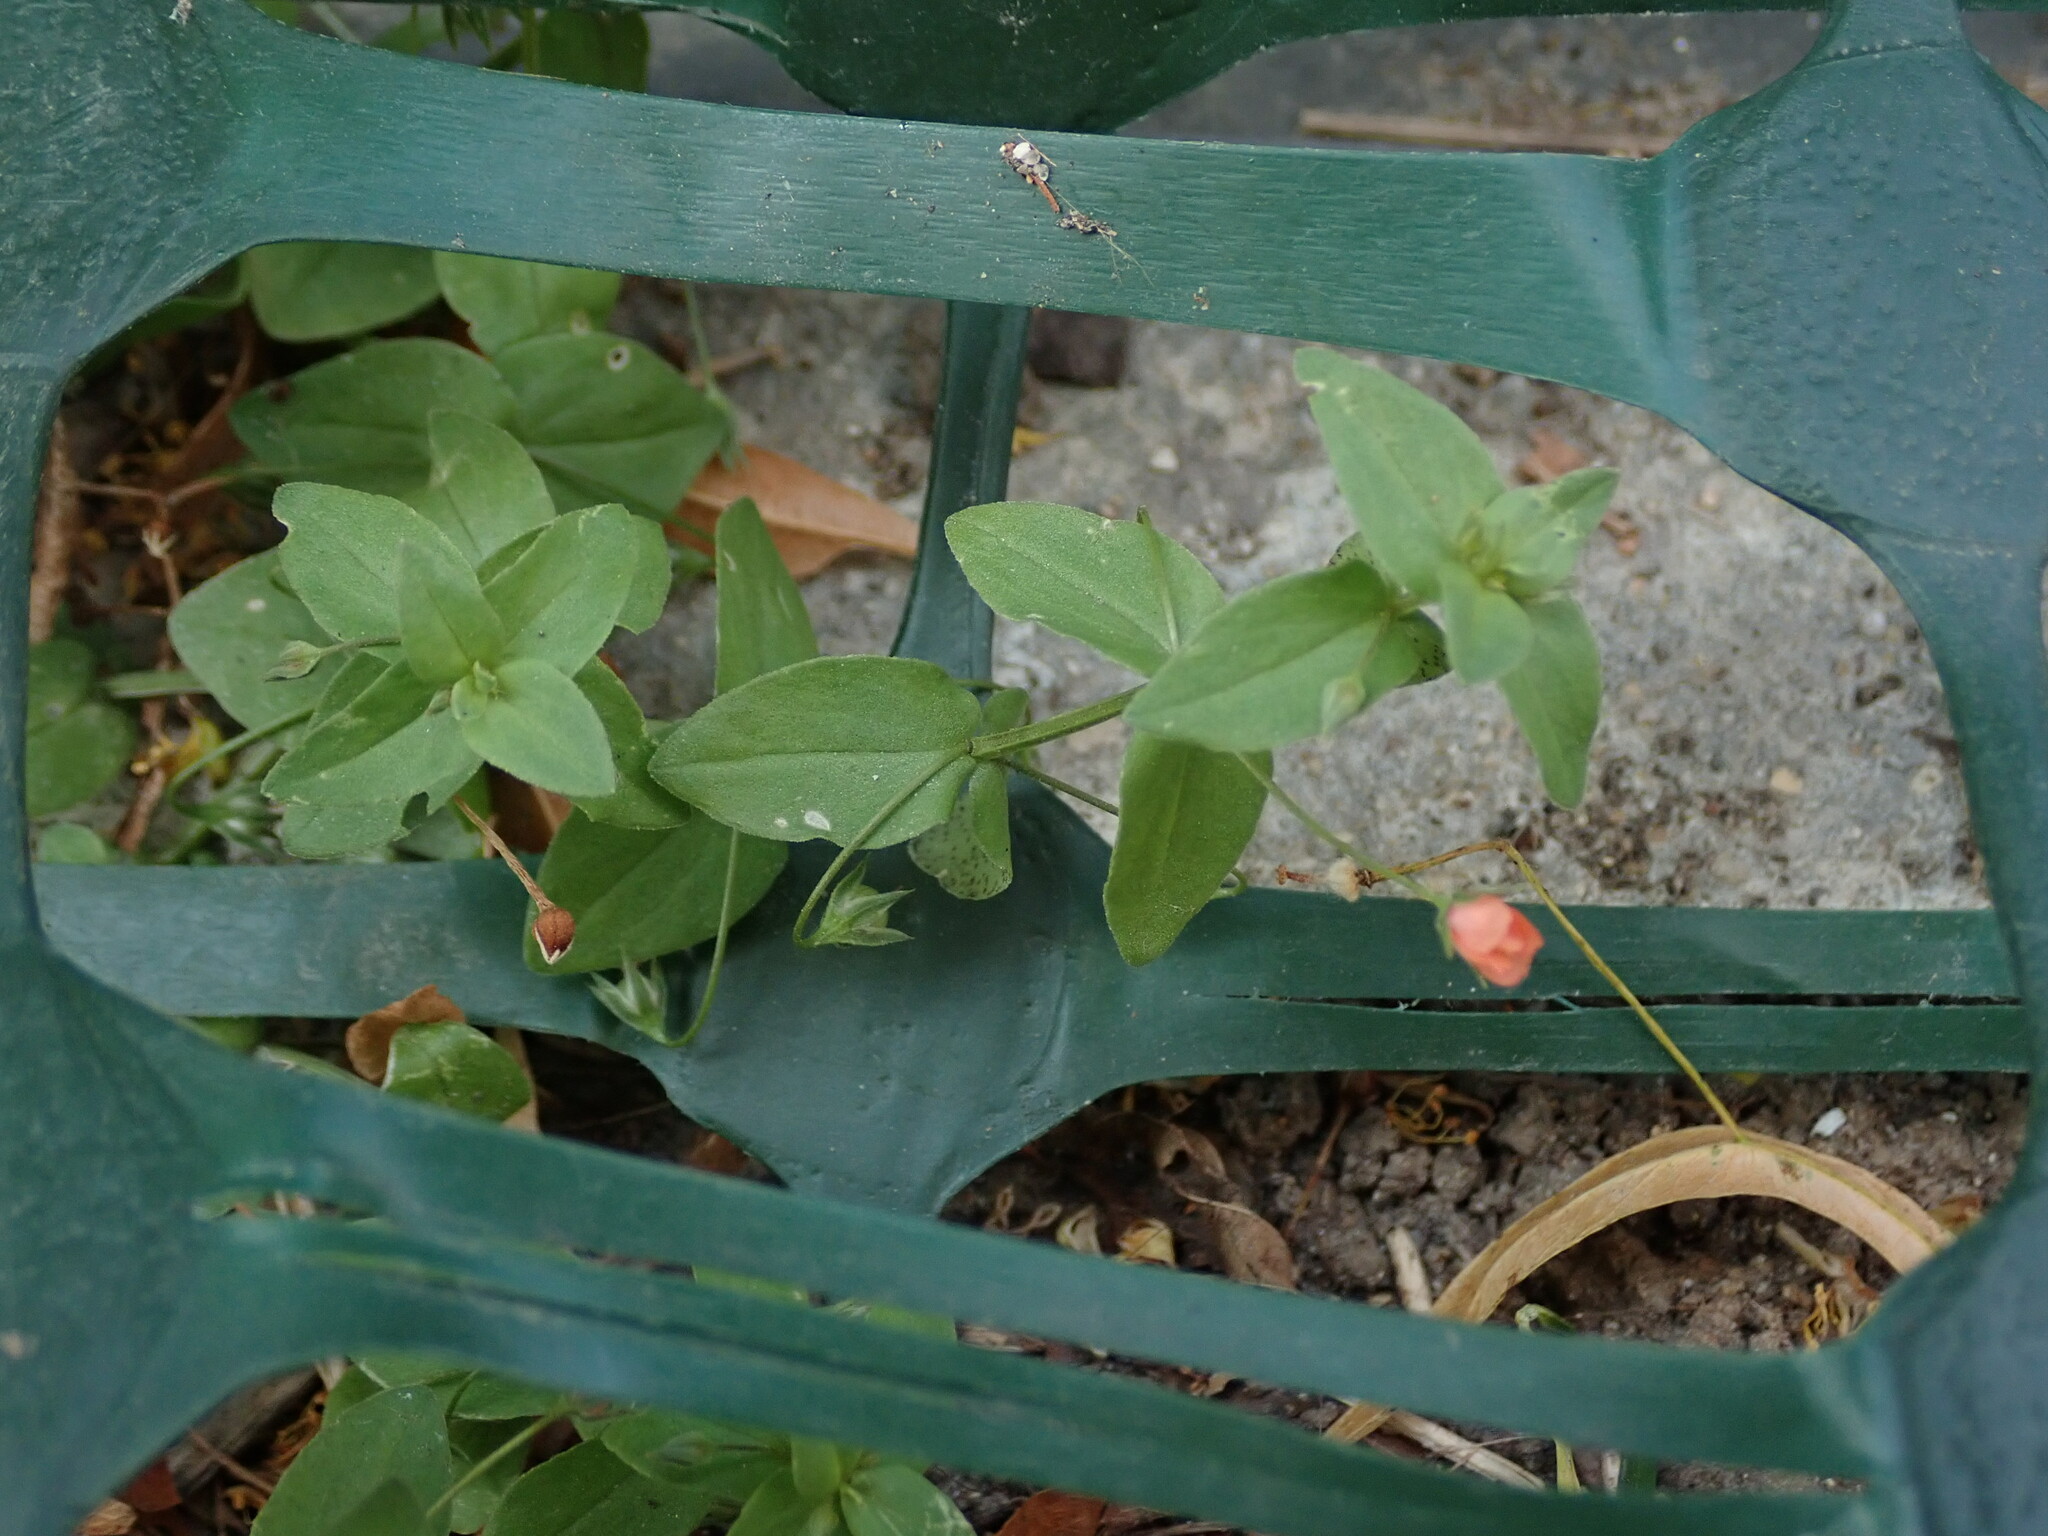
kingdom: Plantae
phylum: Tracheophyta
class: Magnoliopsida
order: Ericales
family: Primulaceae
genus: Lysimachia
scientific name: Lysimachia arvensis
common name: Scarlet pimpernel
